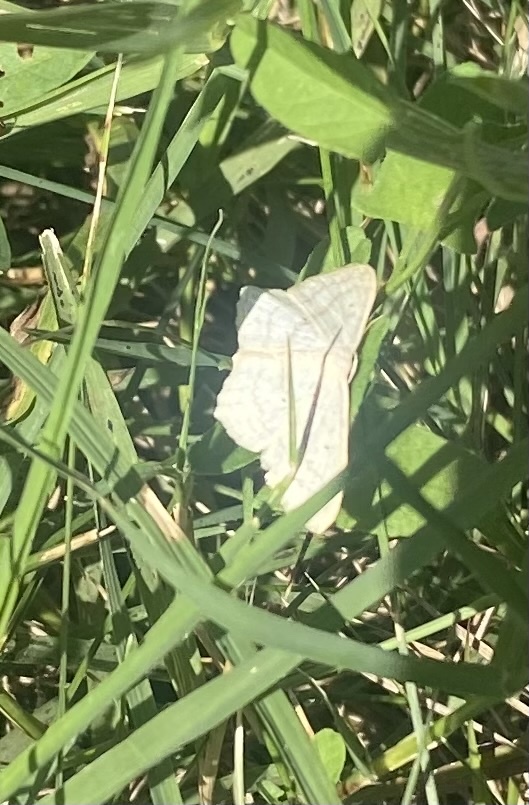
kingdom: Animalia
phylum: Arthropoda
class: Insecta
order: Lepidoptera
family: Geometridae
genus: Scopula
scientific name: Scopula nigropunctata
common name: Sub-angled wave
